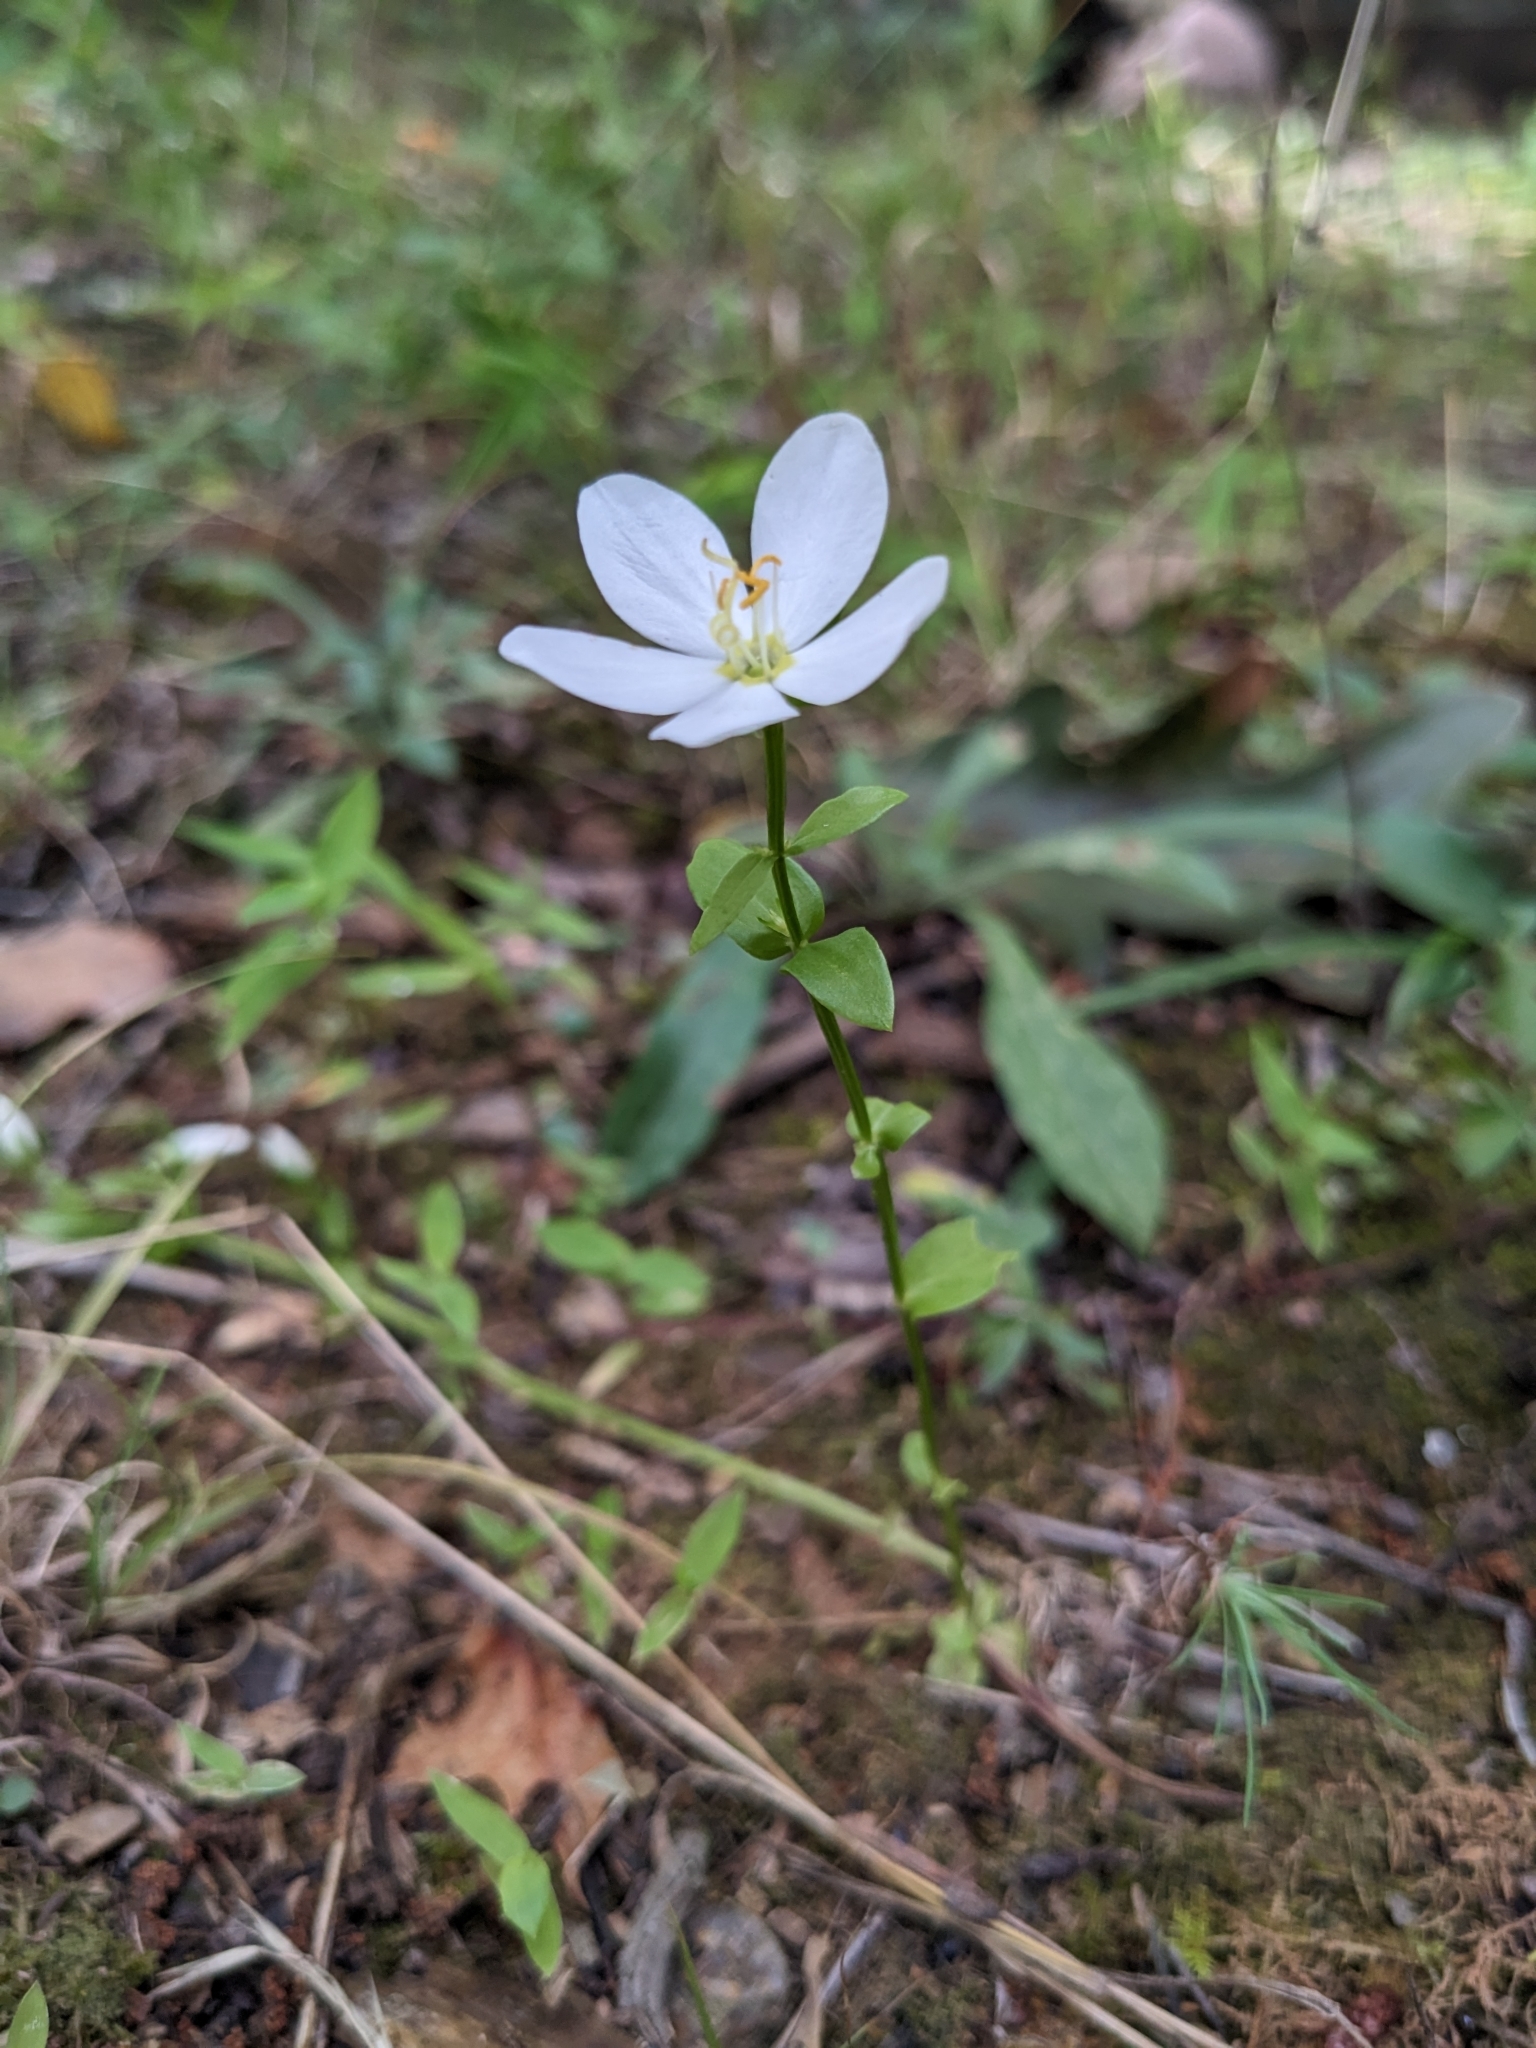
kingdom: Plantae
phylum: Tracheophyta
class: Magnoliopsida
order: Gentianales
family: Gentianaceae
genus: Sabatia
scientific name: Sabatia angularis
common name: Rose-pink
